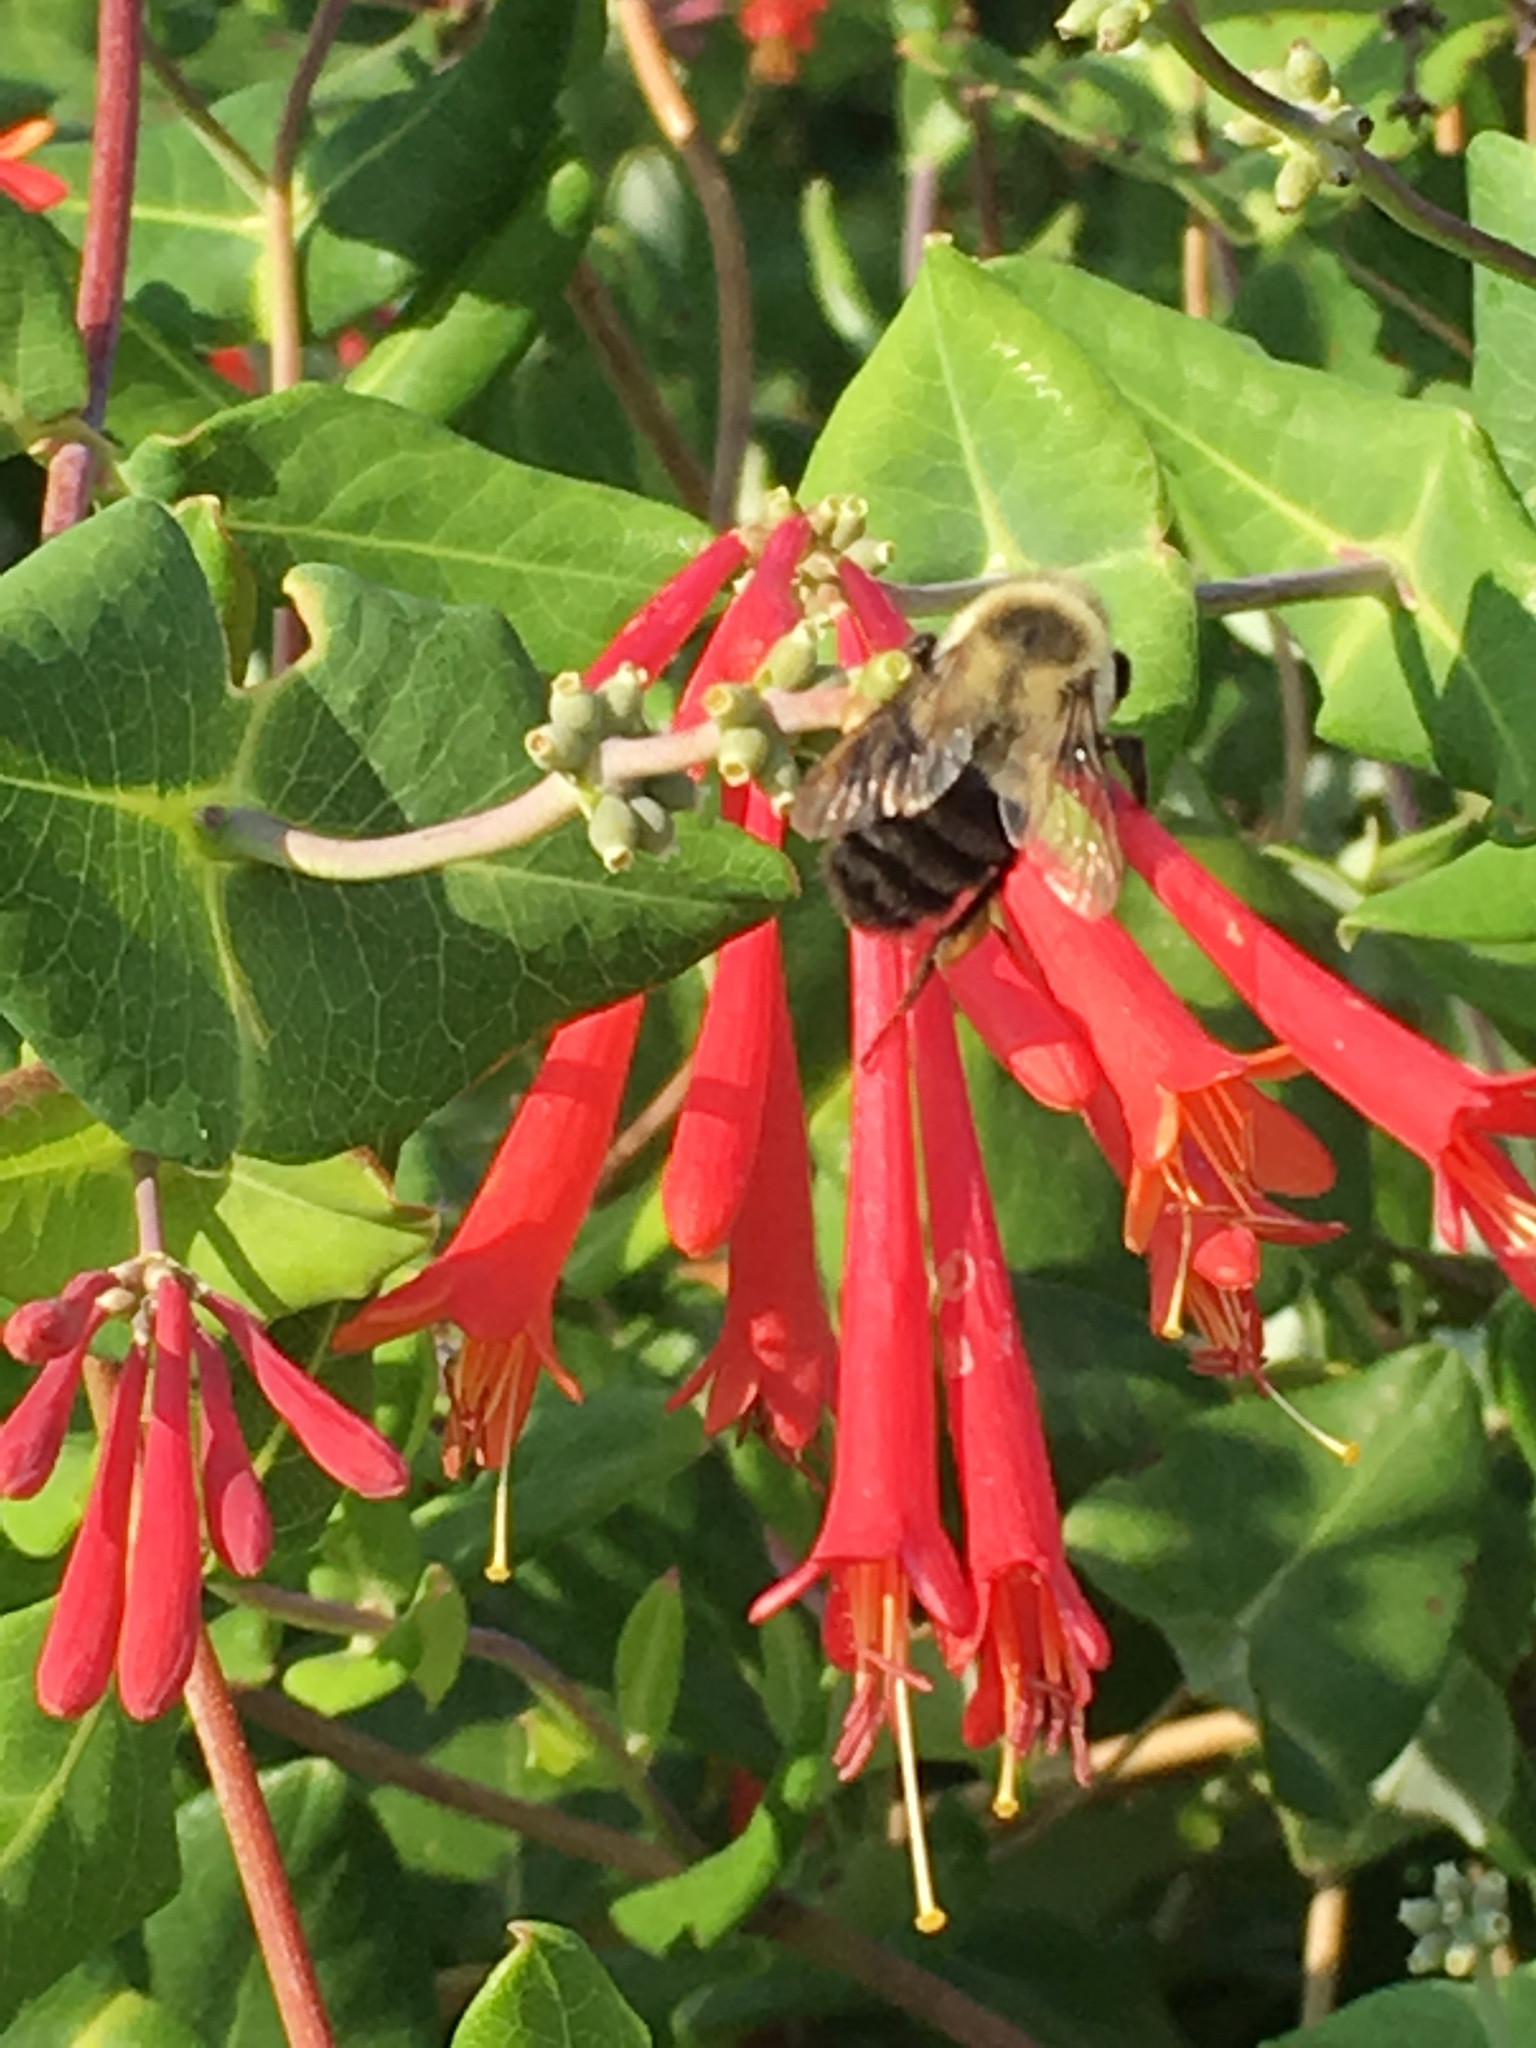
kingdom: Animalia
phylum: Arthropoda
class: Insecta
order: Hymenoptera
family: Apidae
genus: Bombus
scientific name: Bombus impatiens
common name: Common eastern bumble bee
